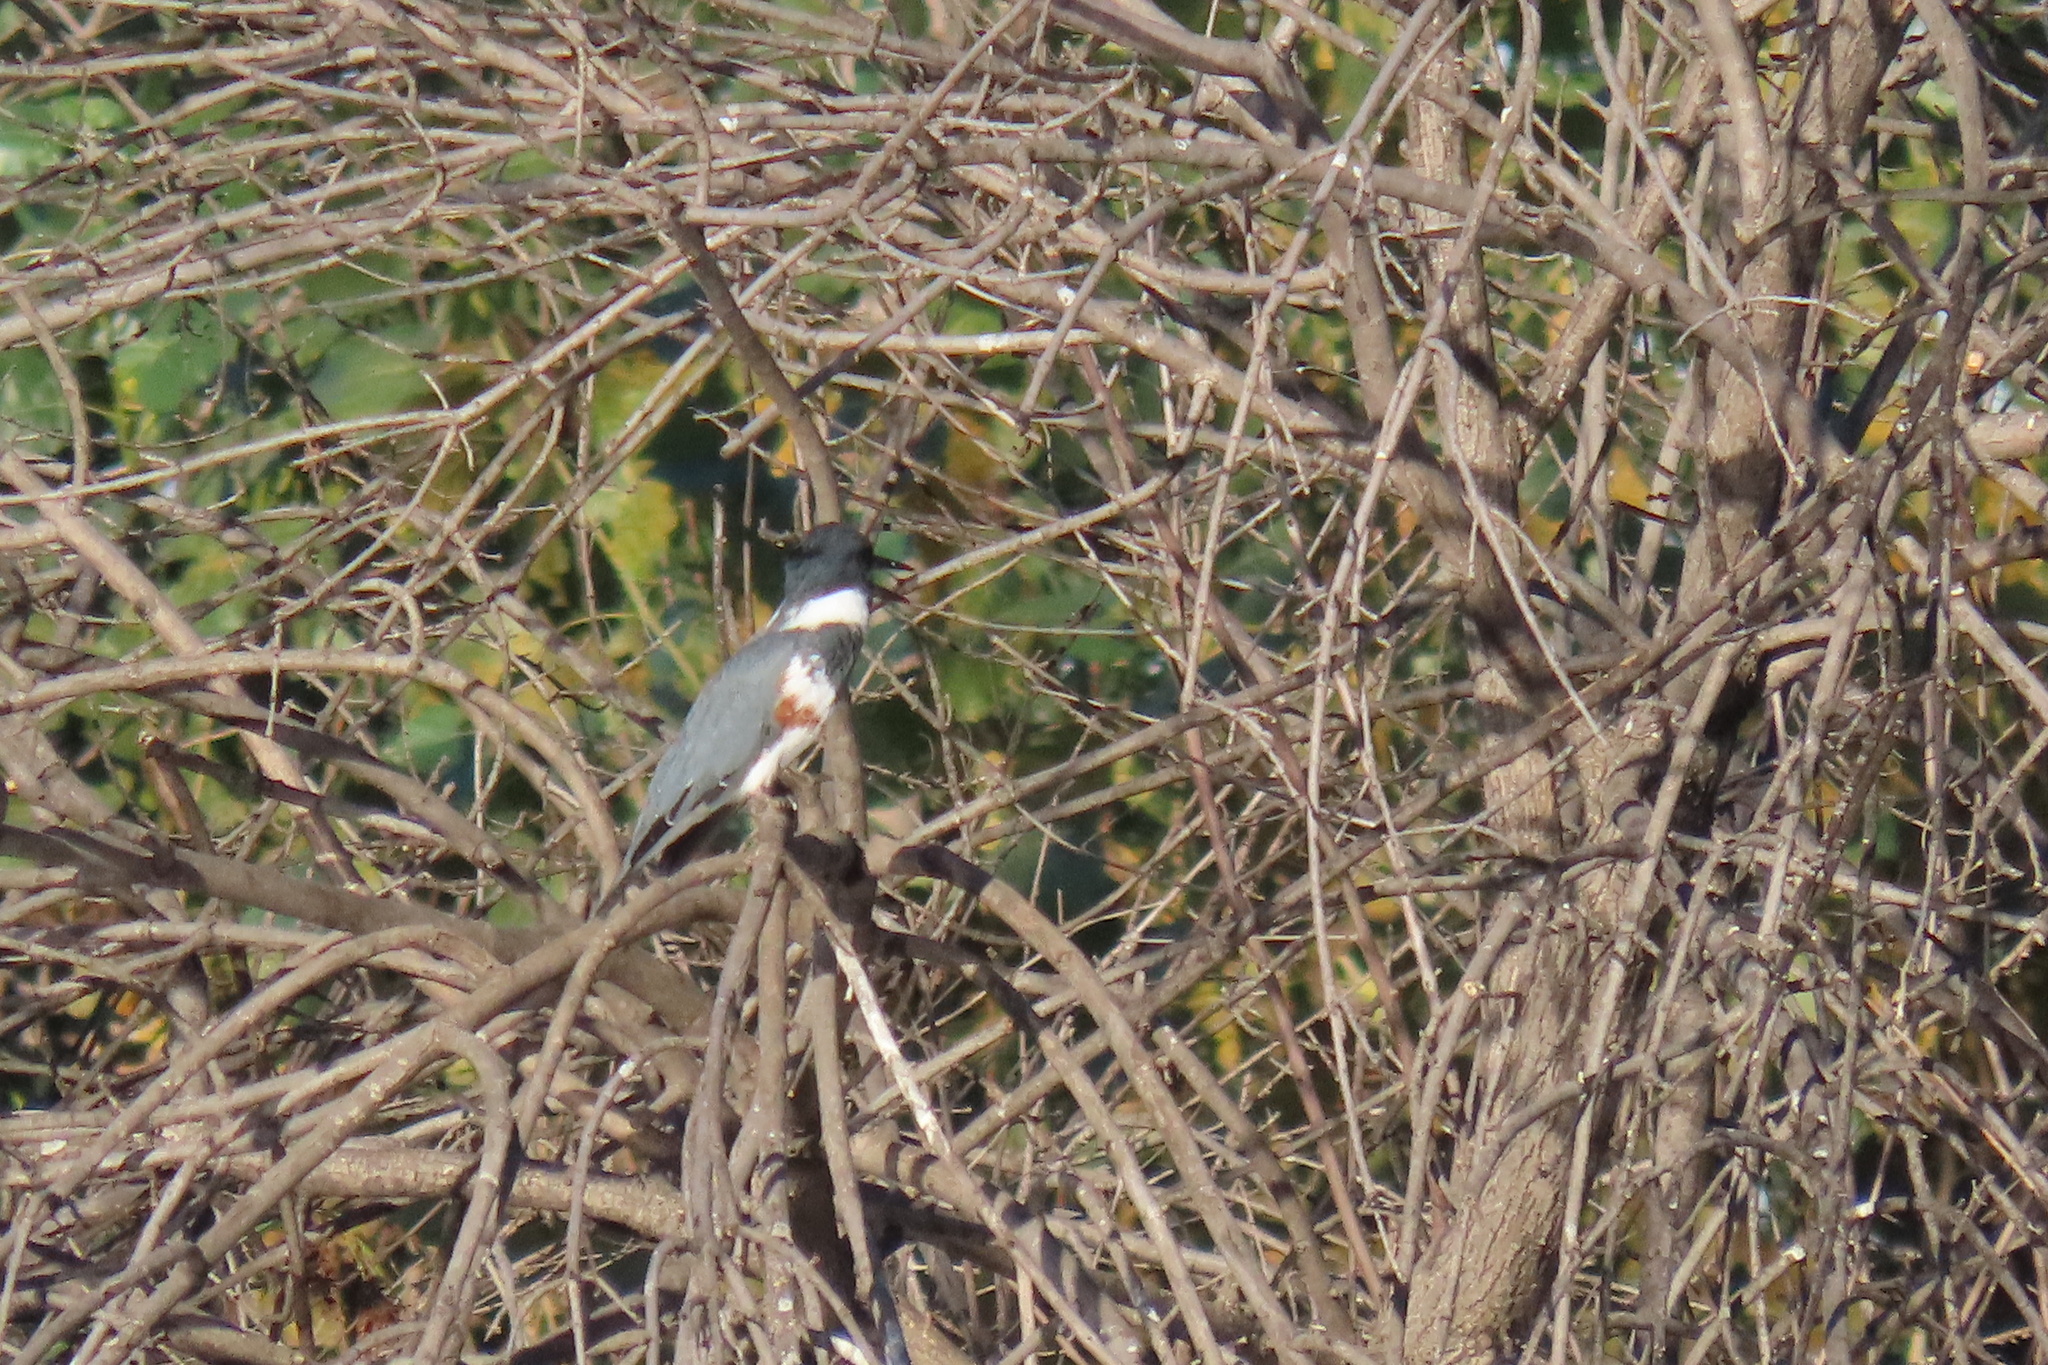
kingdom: Animalia
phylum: Chordata
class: Aves
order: Coraciiformes
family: Alcedinidae
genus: Megaceryle
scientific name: Megaceryle alcyon
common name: Belted kingfisher
